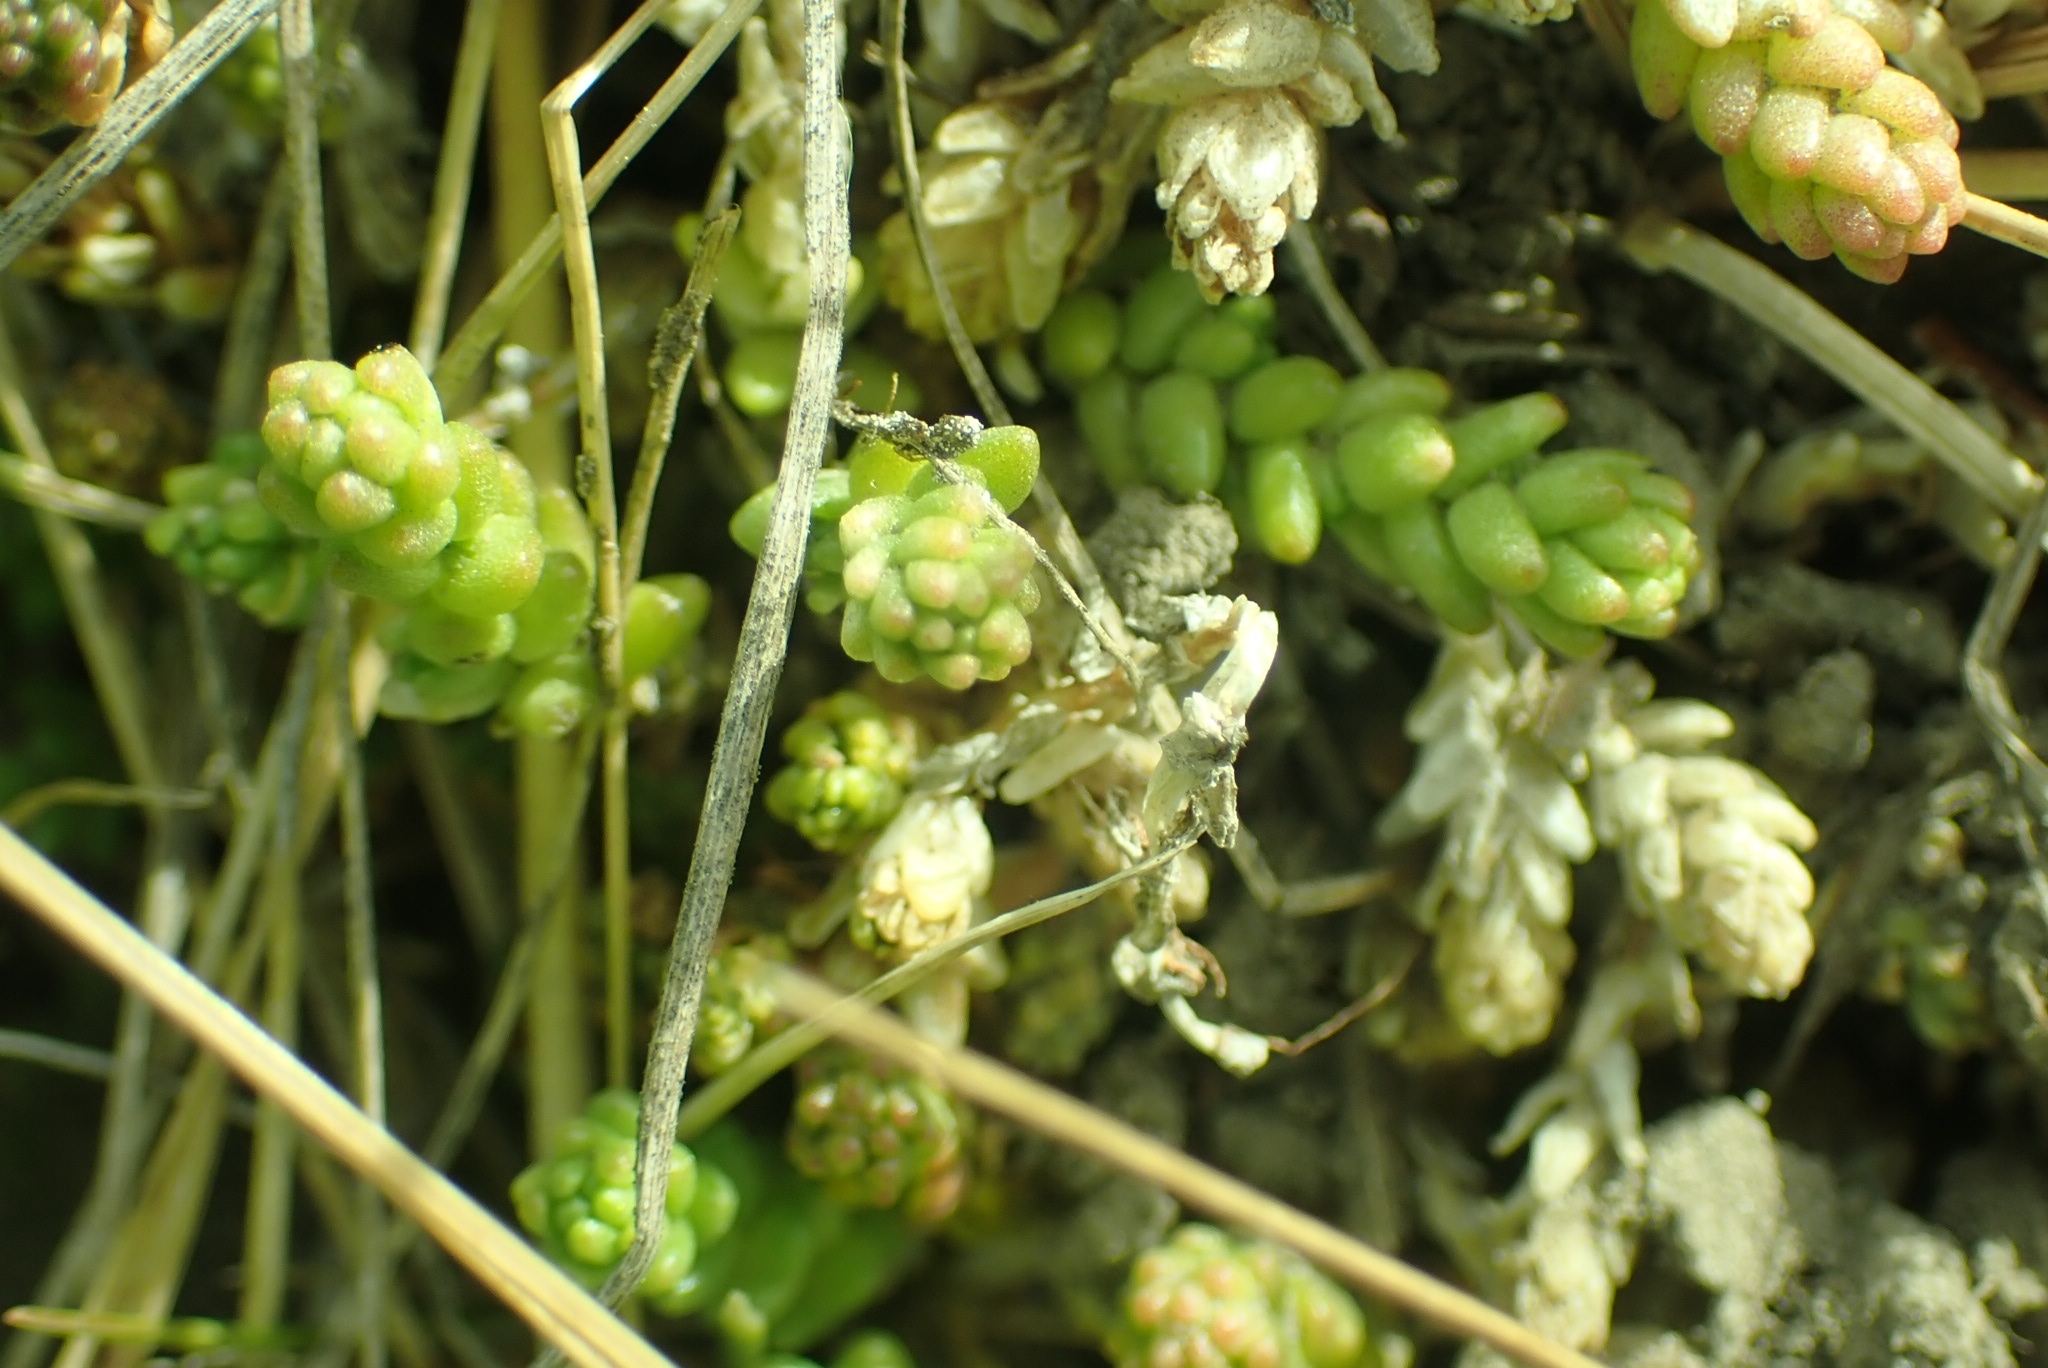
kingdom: Plantae
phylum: Tracheophyta
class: Magnoliopsida
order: Saxifragales
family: Crassulaceae
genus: Sedum
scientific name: Sedum acre
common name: Biting stonecrop
